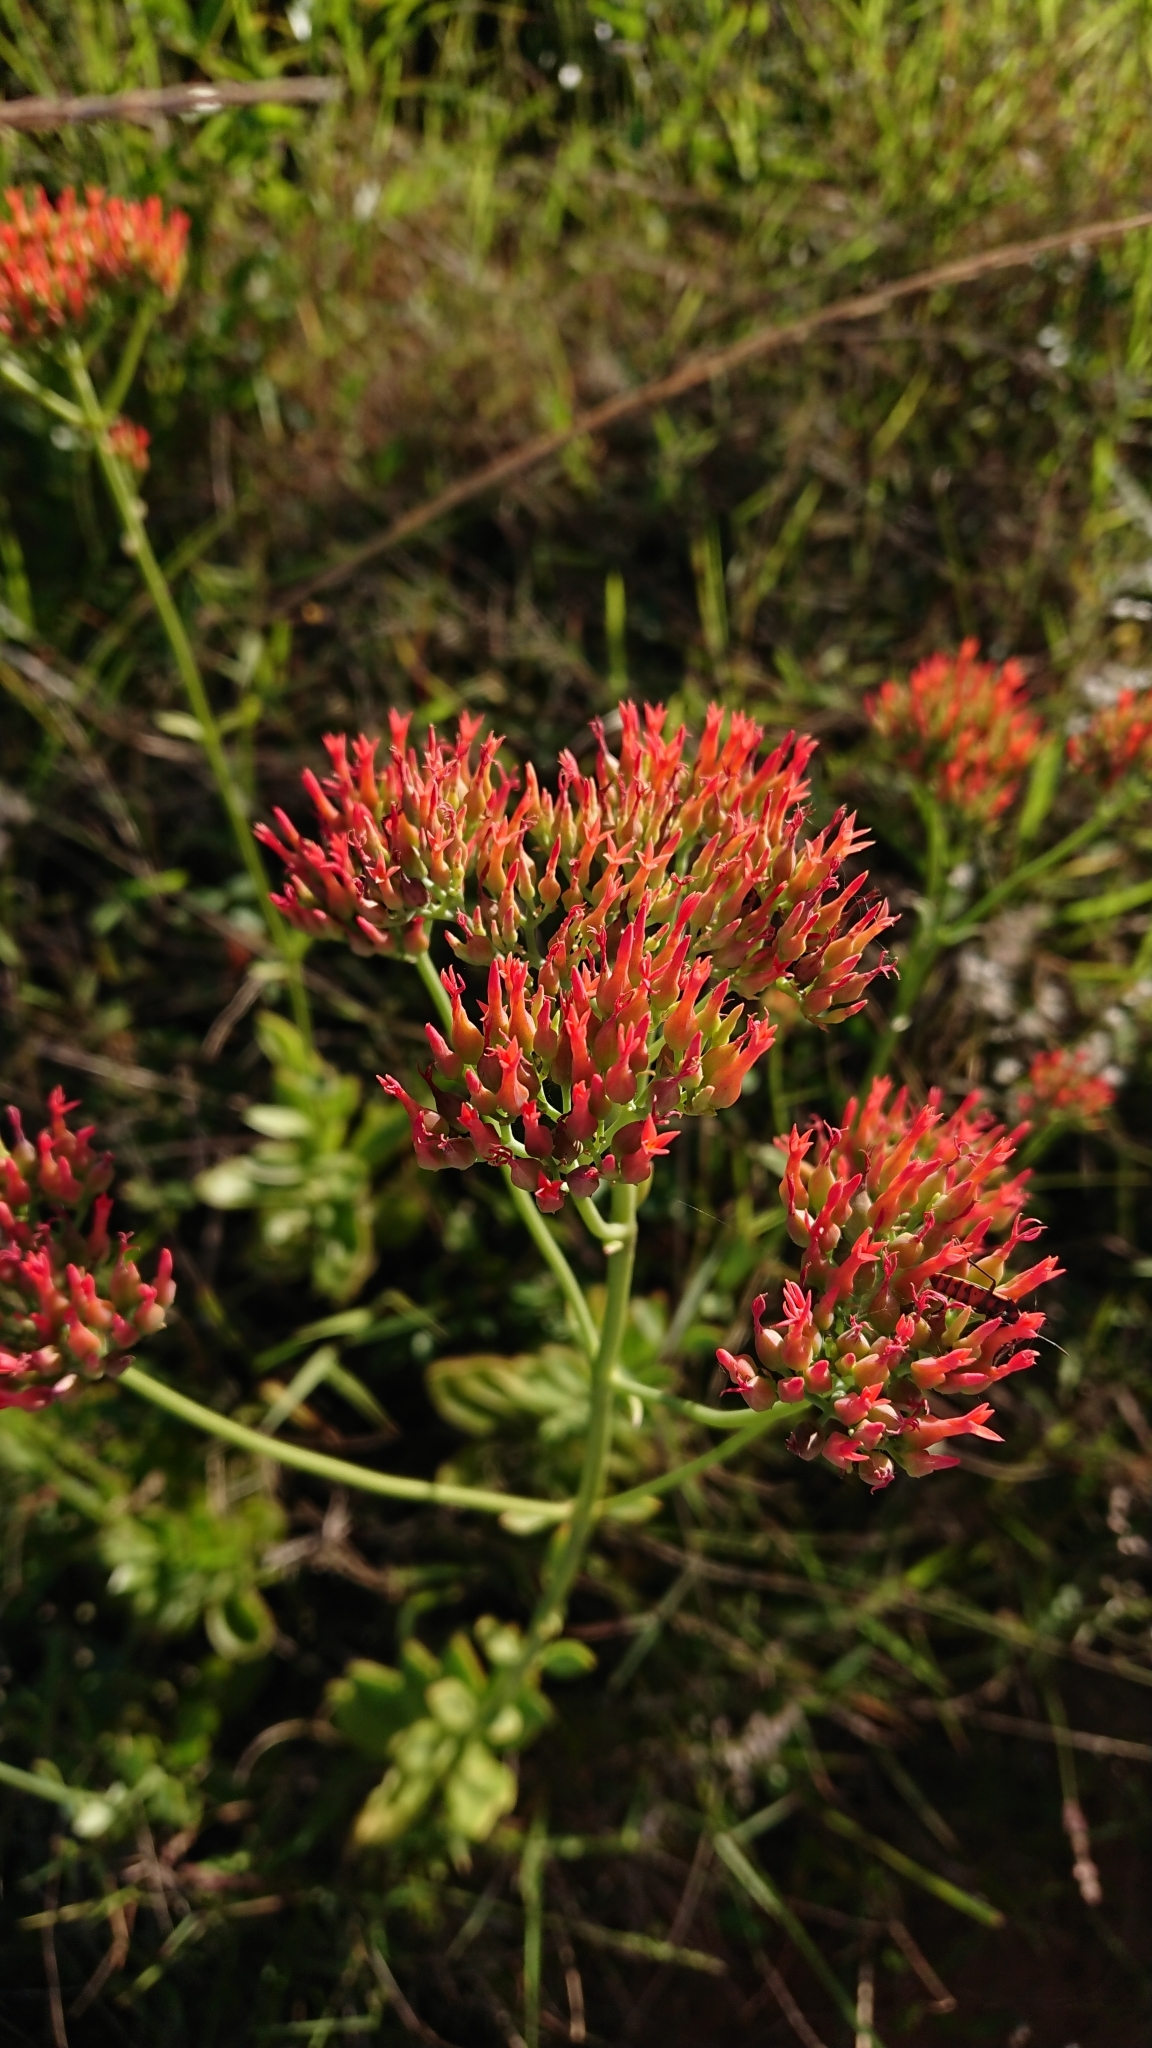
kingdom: Plantae
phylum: Tracheophyta
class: Magnoliopsida
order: Saxifragales
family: Crassulaceae
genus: Kalanchoe
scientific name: Kalanchoe rotundifolia
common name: Common kalanchoe
